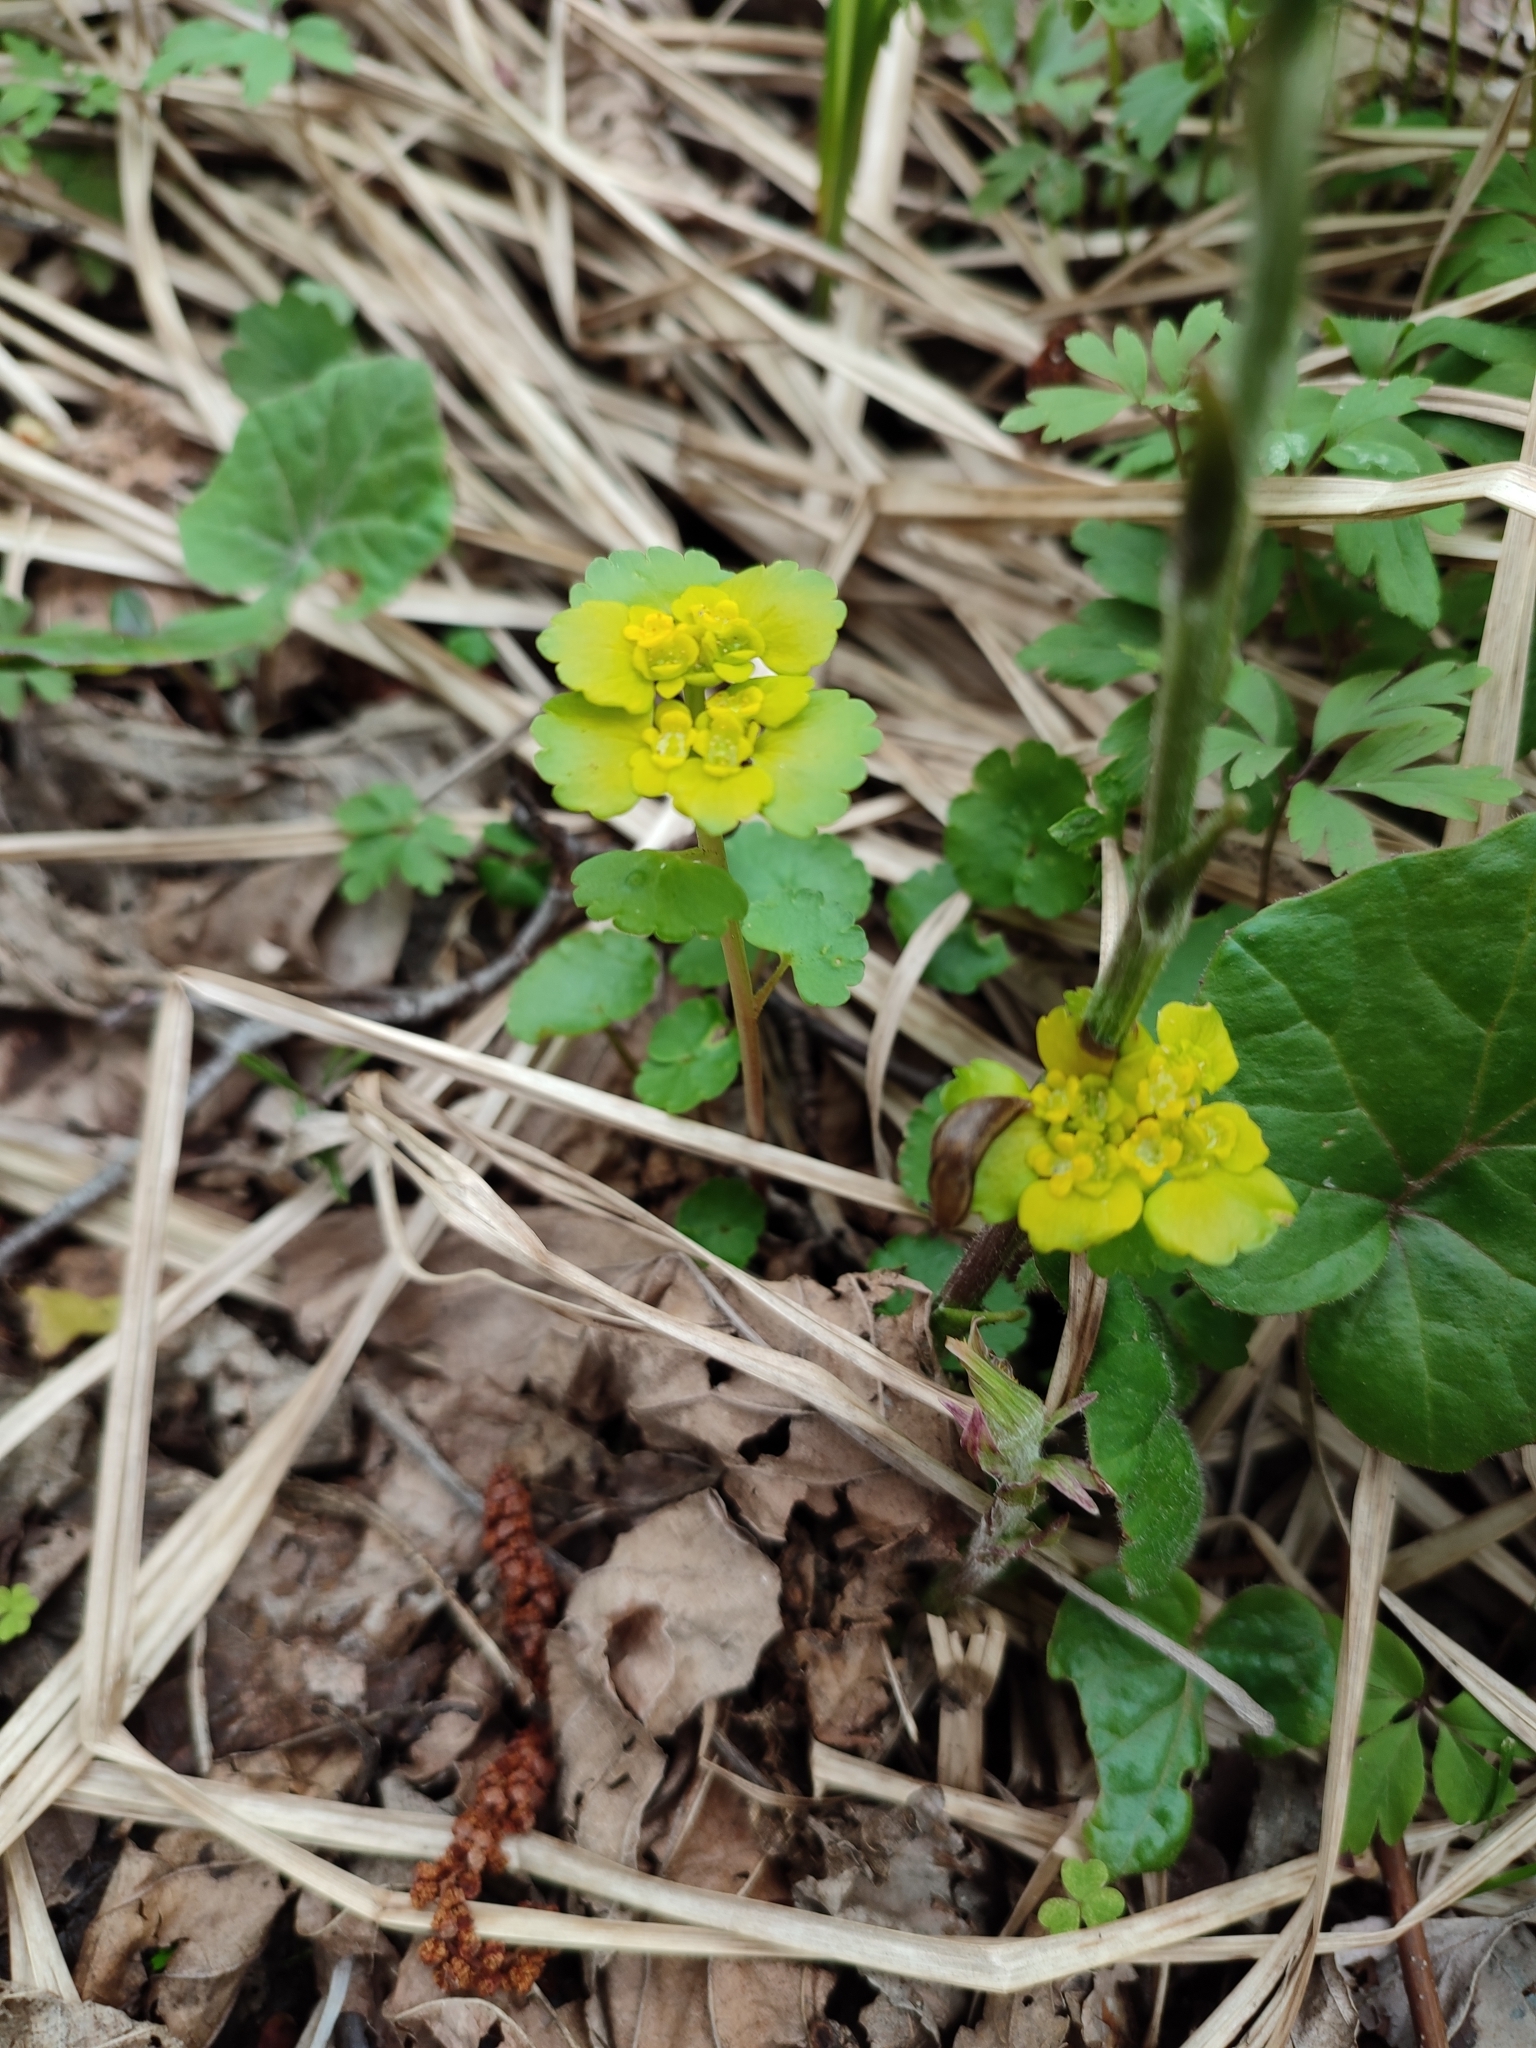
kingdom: Plantae
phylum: Tracheophyta
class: Magnoliopsida
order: Saxifragales
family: Saxifragaceae
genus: Chrysosplenium
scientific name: Chrysosplenium alternifolium
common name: Alternate-leaved golden-saxifrage
